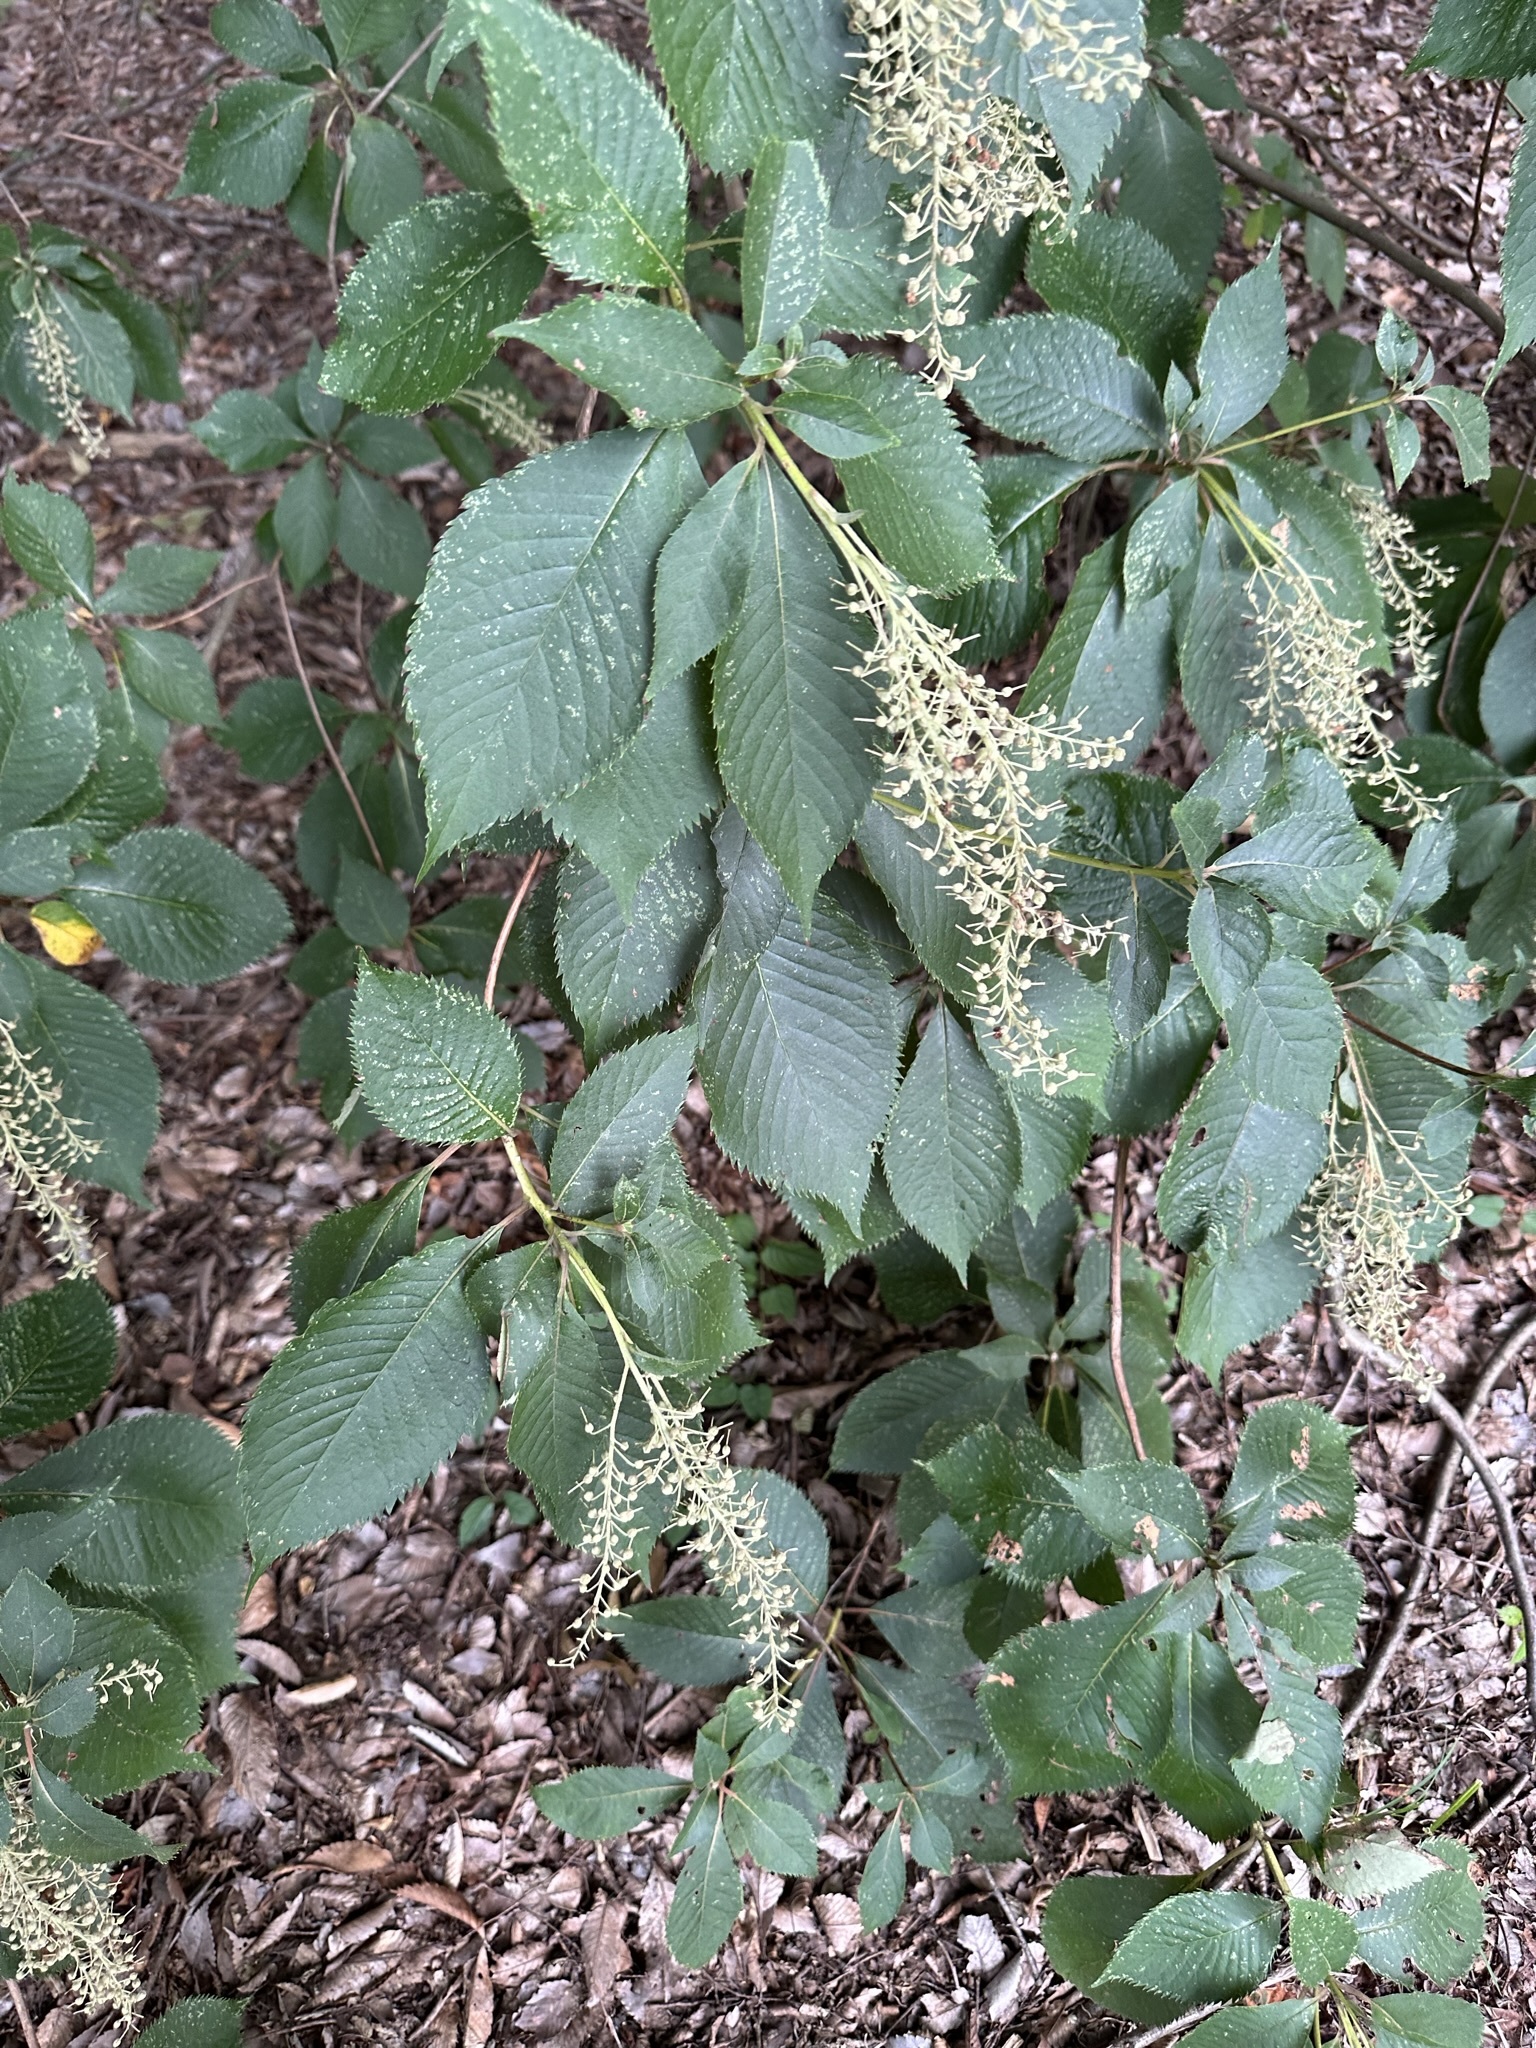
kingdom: Plantae
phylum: Tracheophyta
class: Magnoliopsida
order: Ericales
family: Clethraceae
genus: Clethra
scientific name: Clethra barbinervis
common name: Japanese clethra
